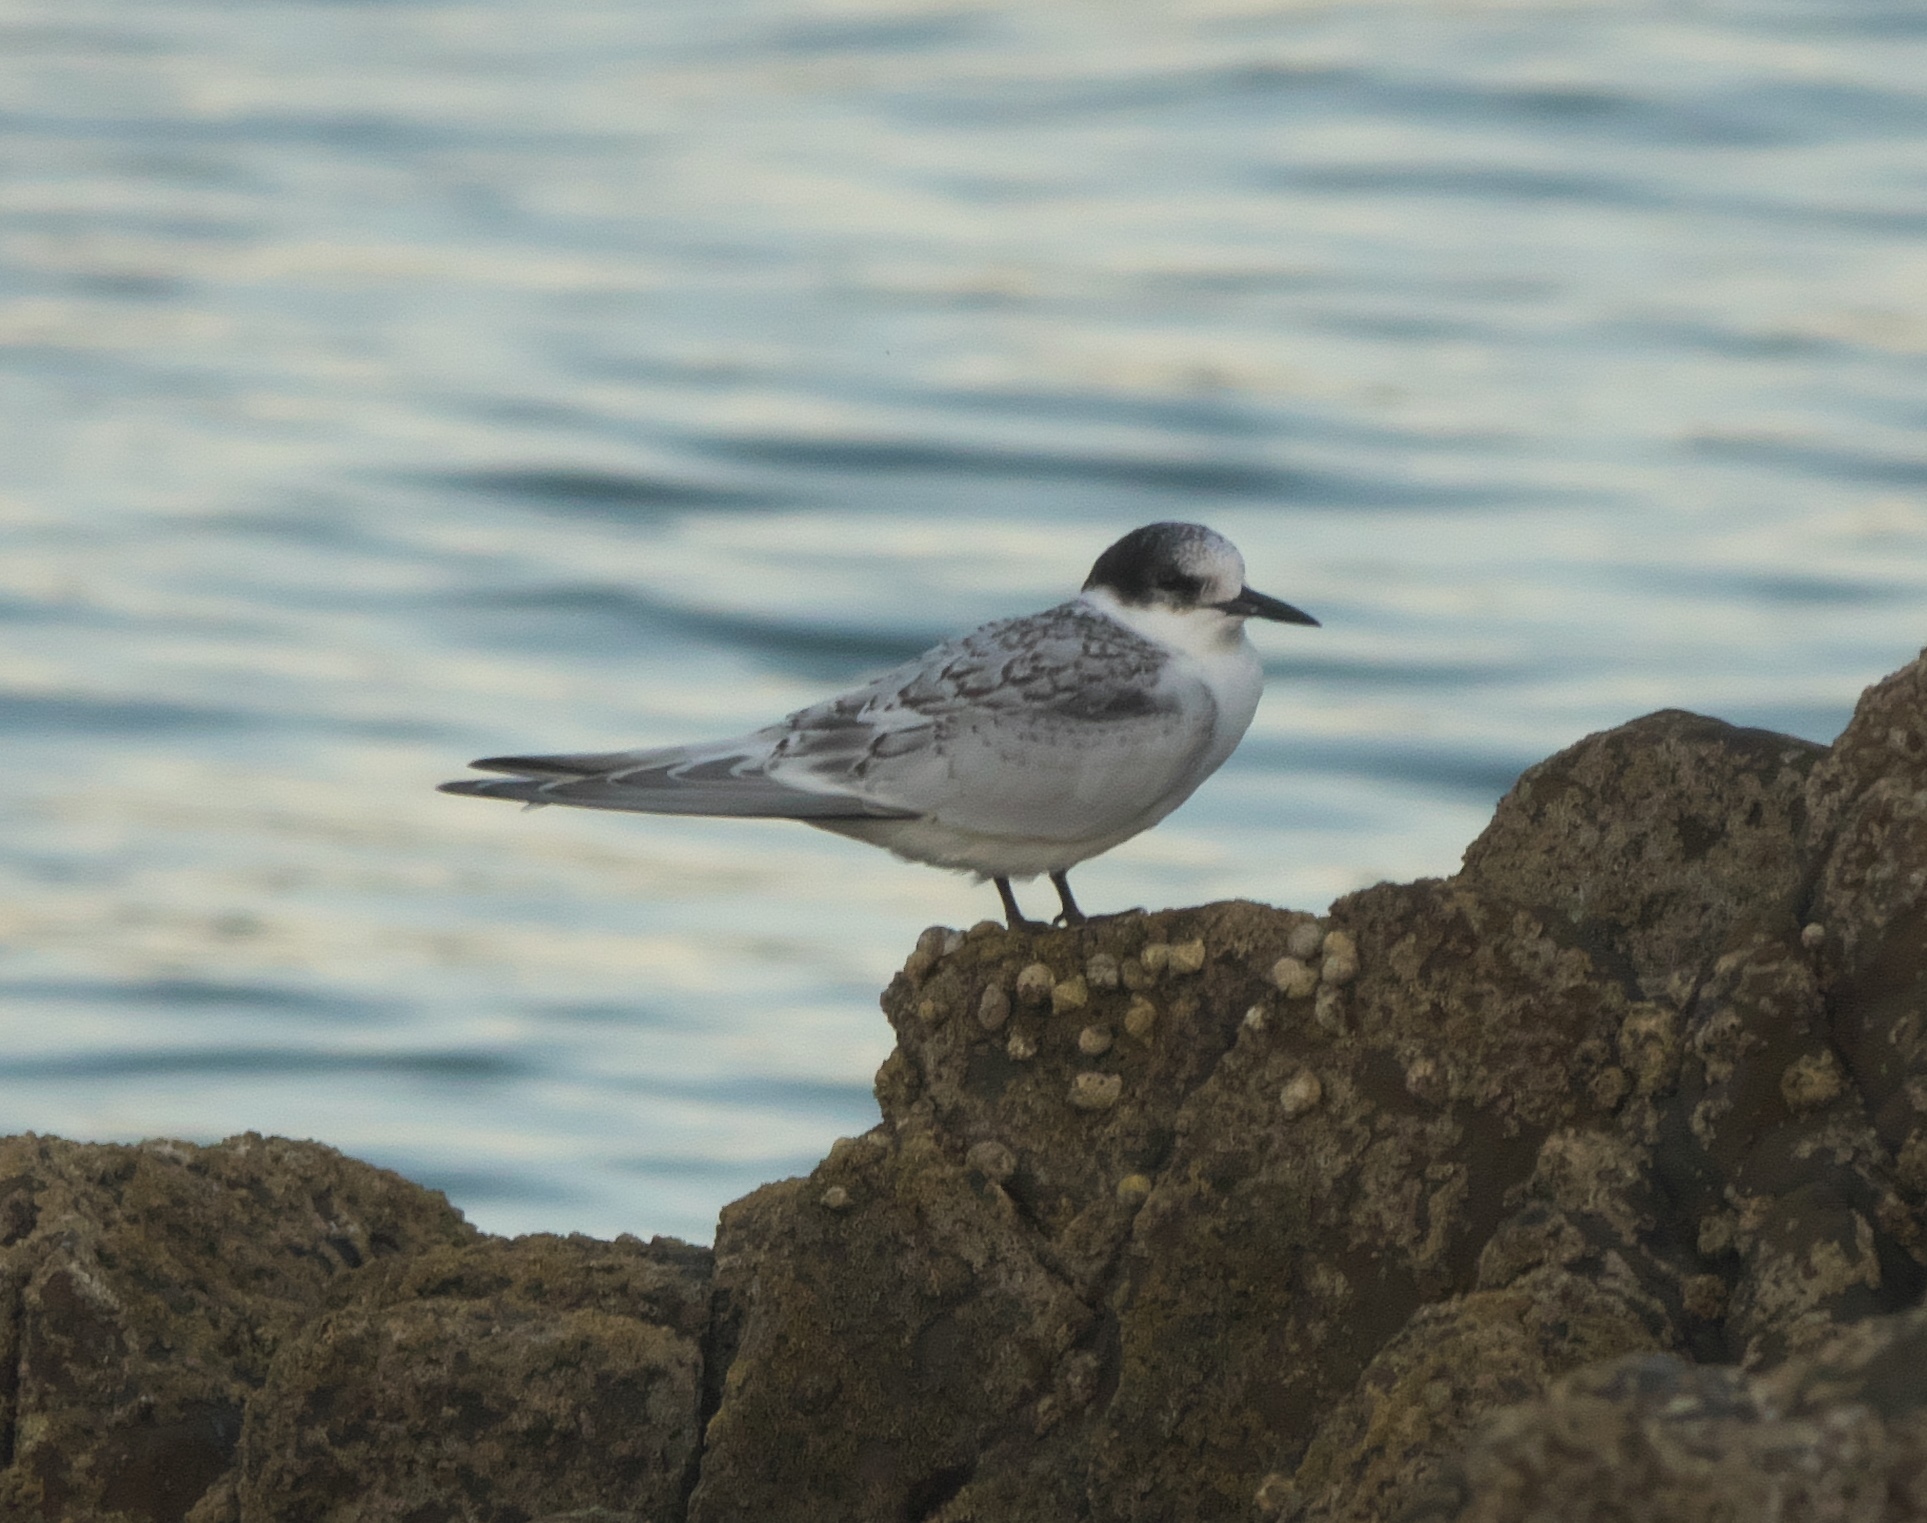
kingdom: Animalia
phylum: Chordata
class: Aves
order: Charadriiformes
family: Laridae
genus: Sterna
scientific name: Sterna striata
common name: White-fronted tern
